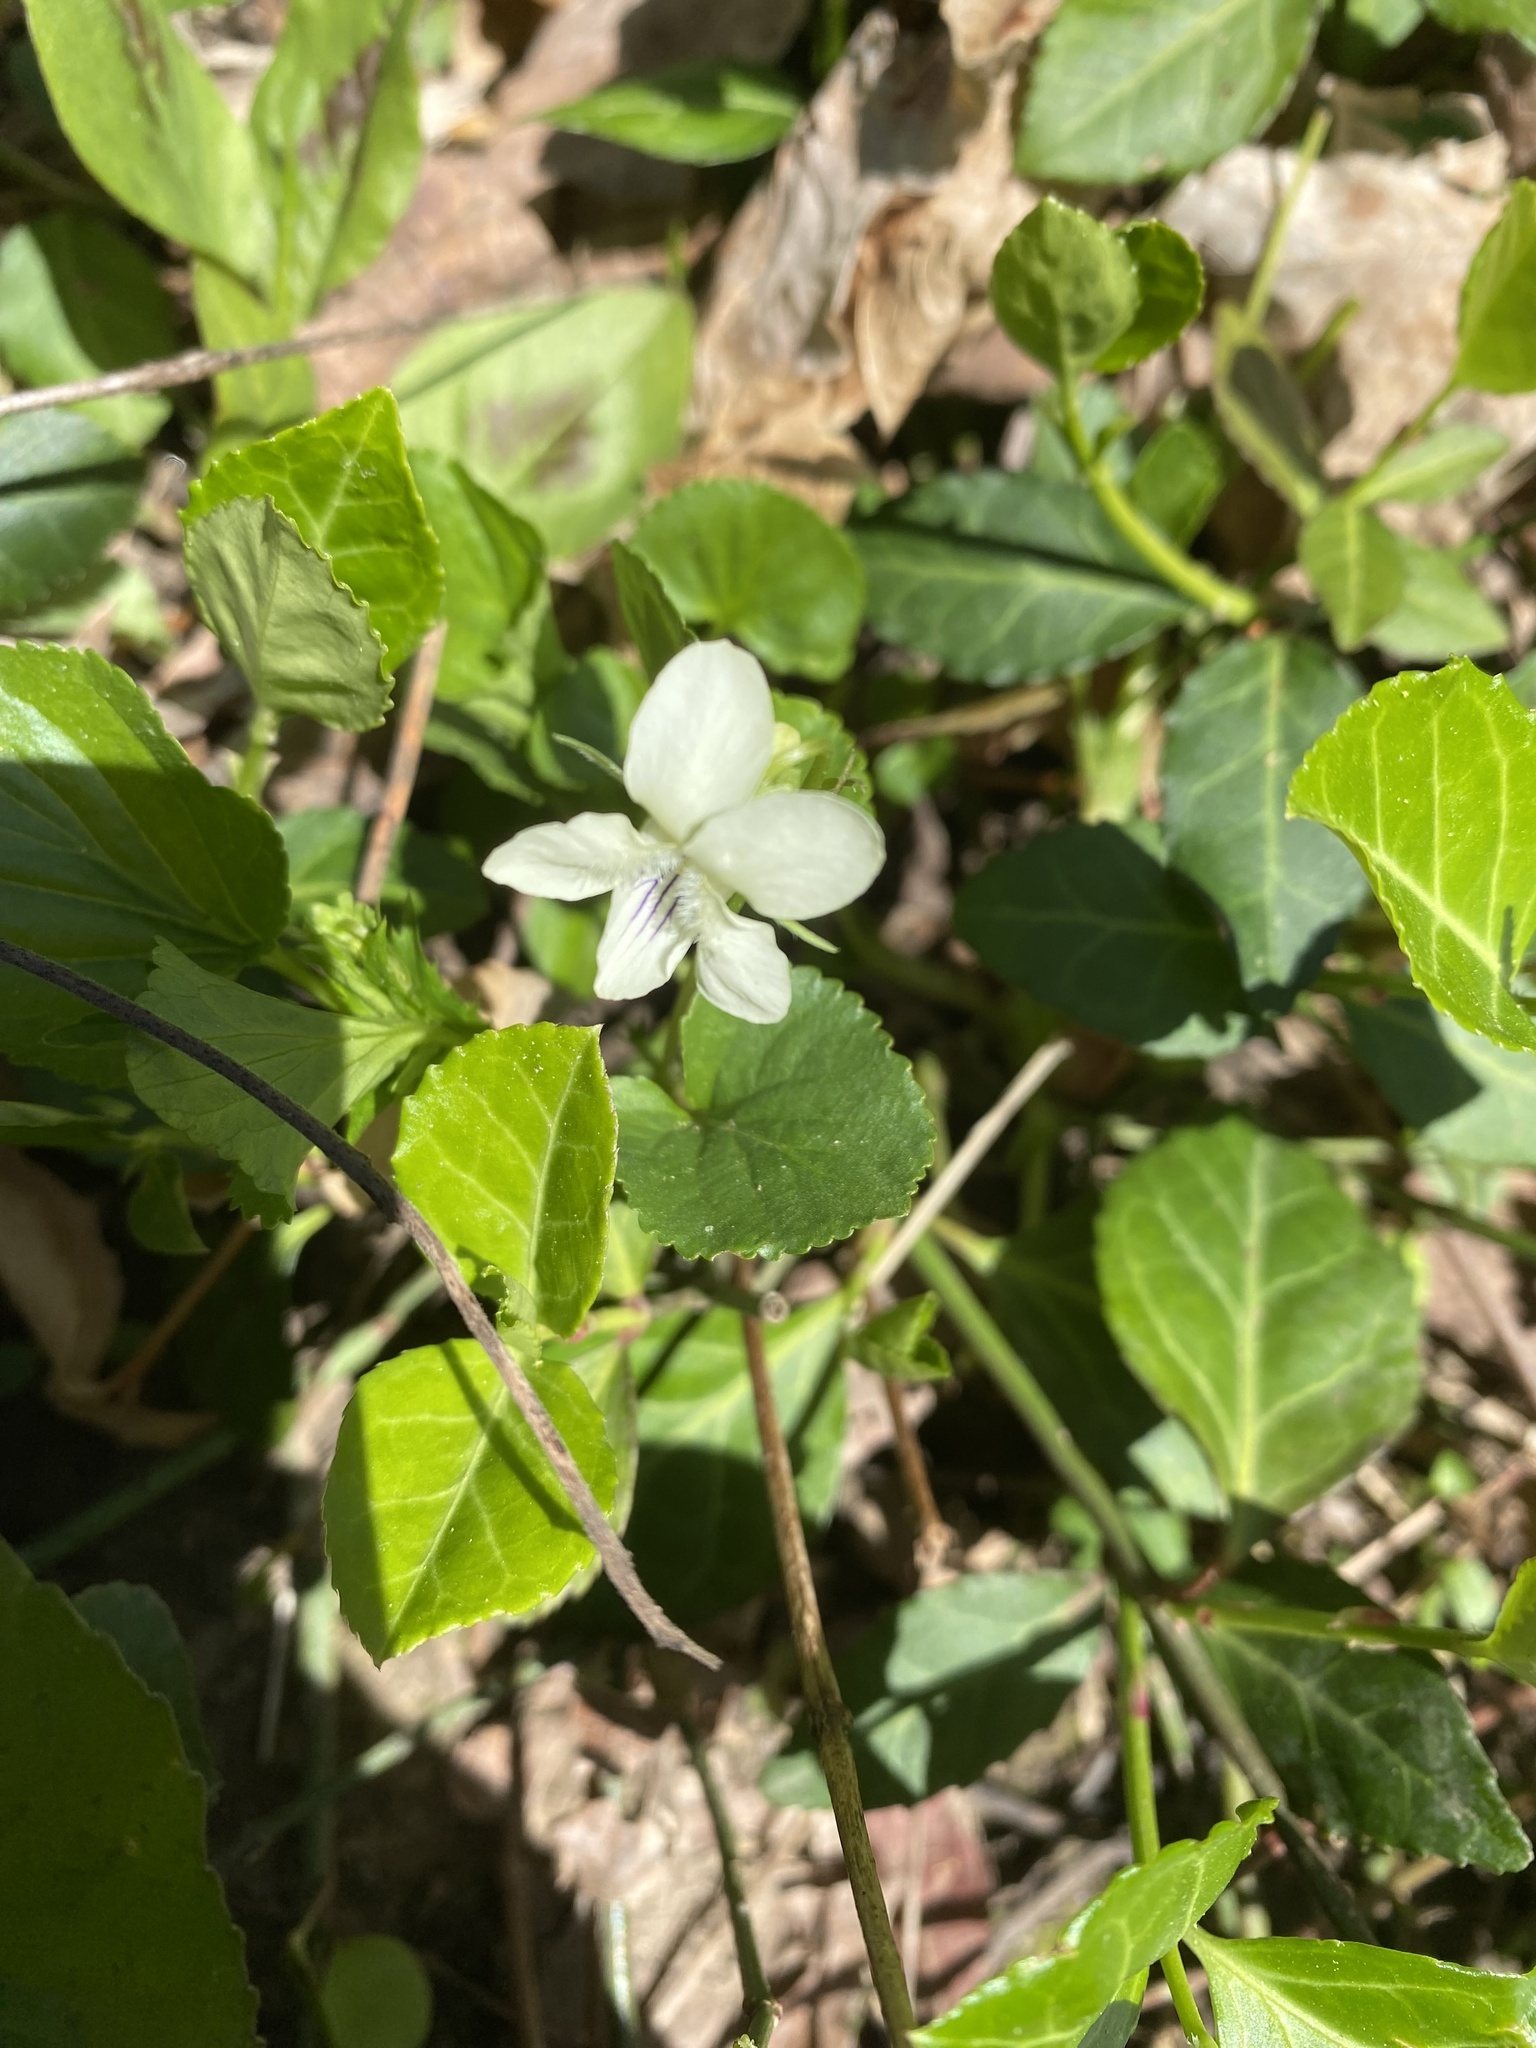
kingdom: Plantae
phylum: Tracheophyta
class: Magnoliopsida
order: Malpighiales
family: Violaceae
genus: Viola
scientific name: Viola striata
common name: Cream violet
